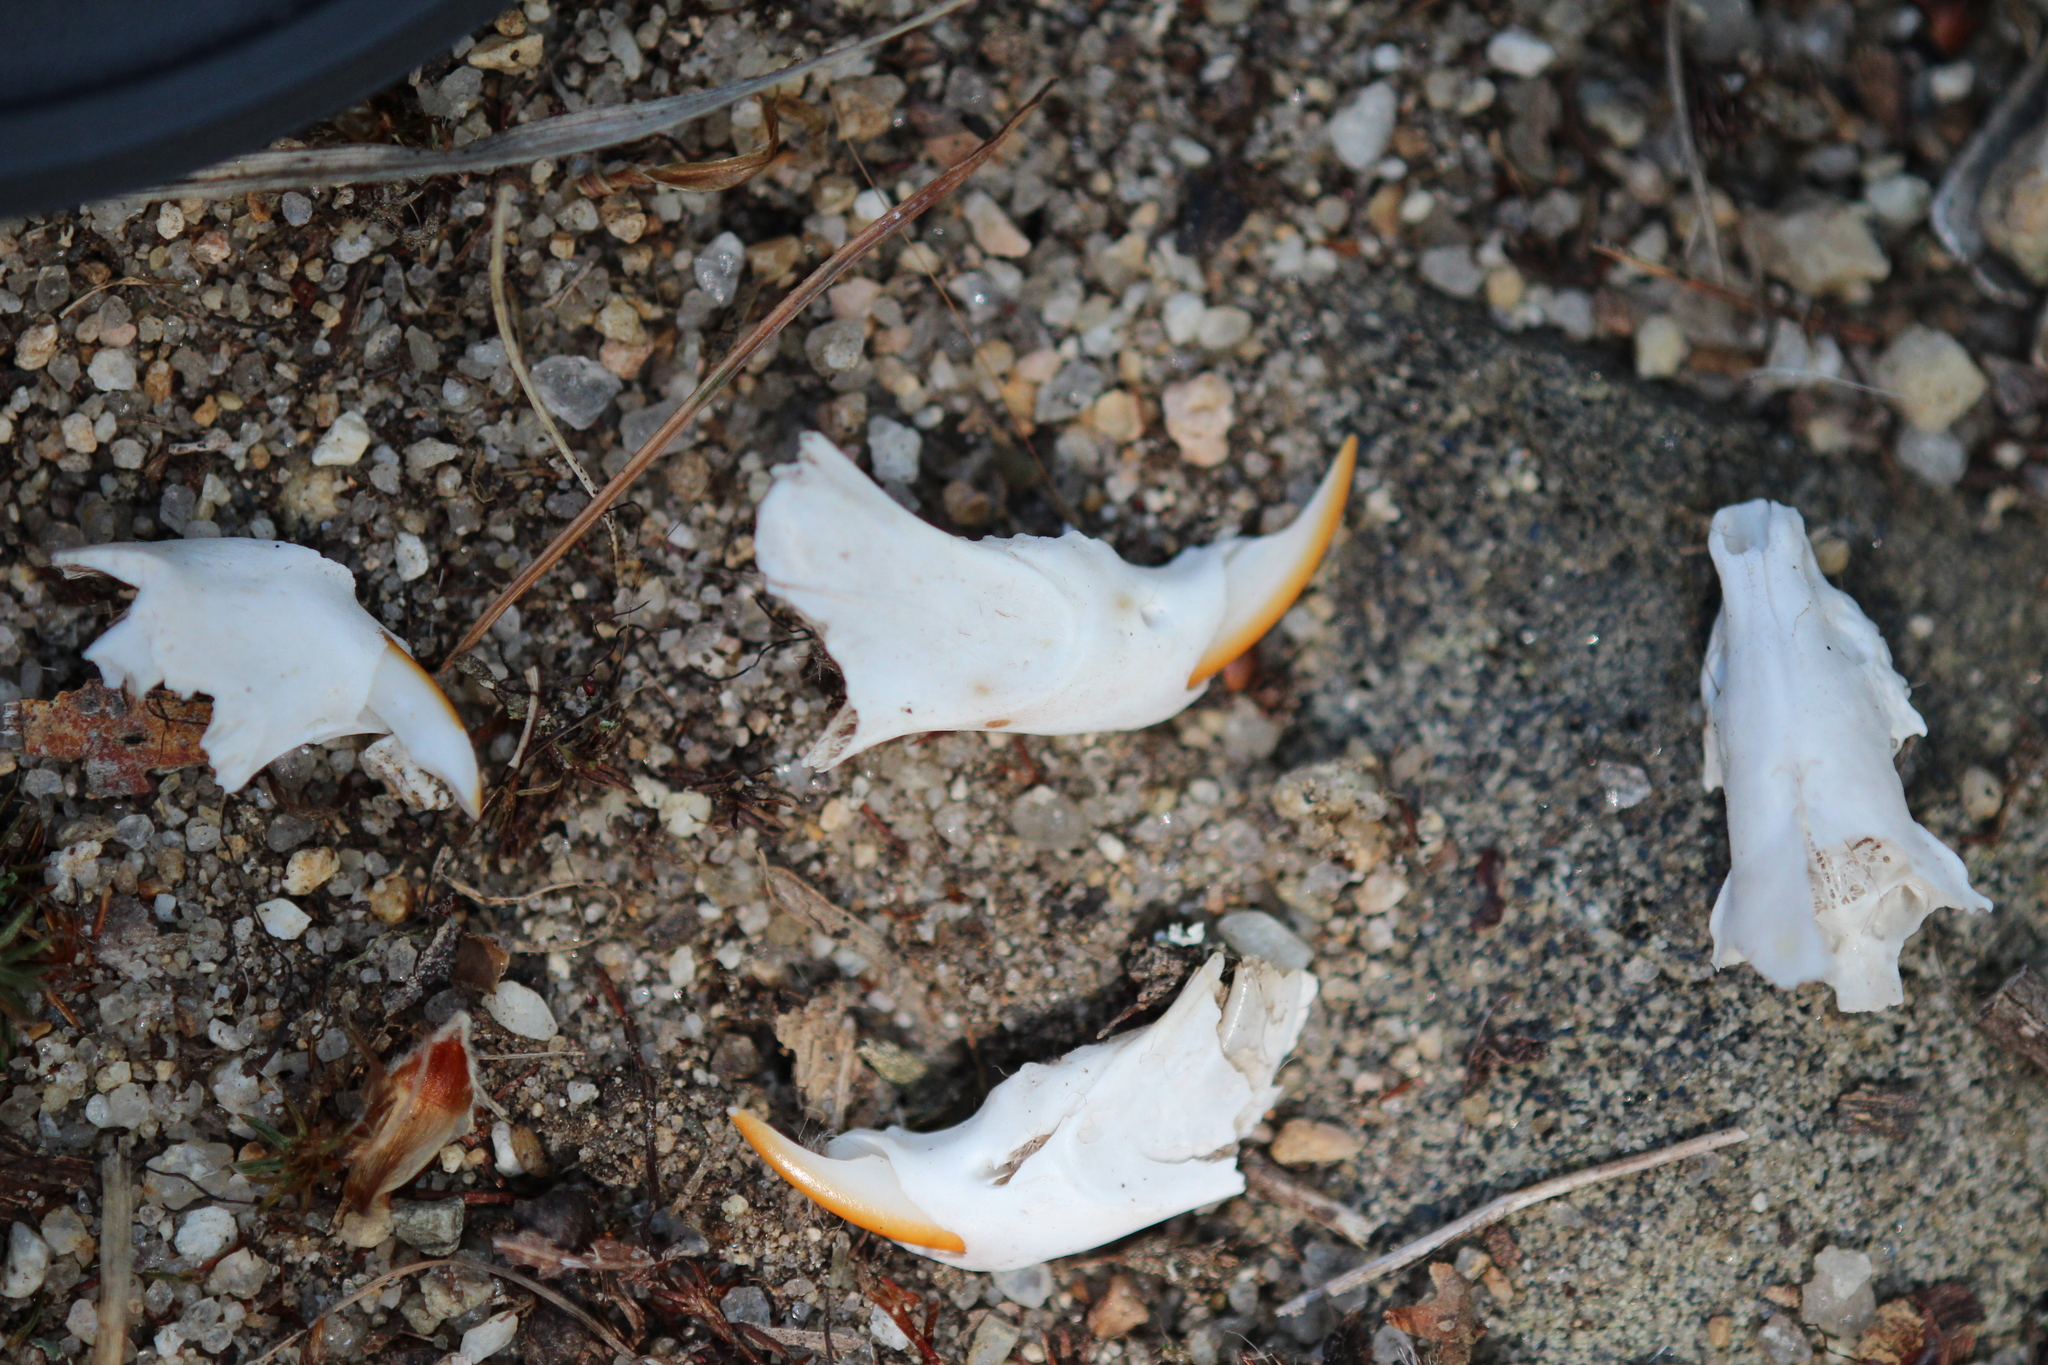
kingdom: Animalia
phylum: Chordata
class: Mammalia
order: Soricomorpha
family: Soricidae
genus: Blarina
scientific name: Blarina brevicauda
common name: Northern short-tailed shrew
